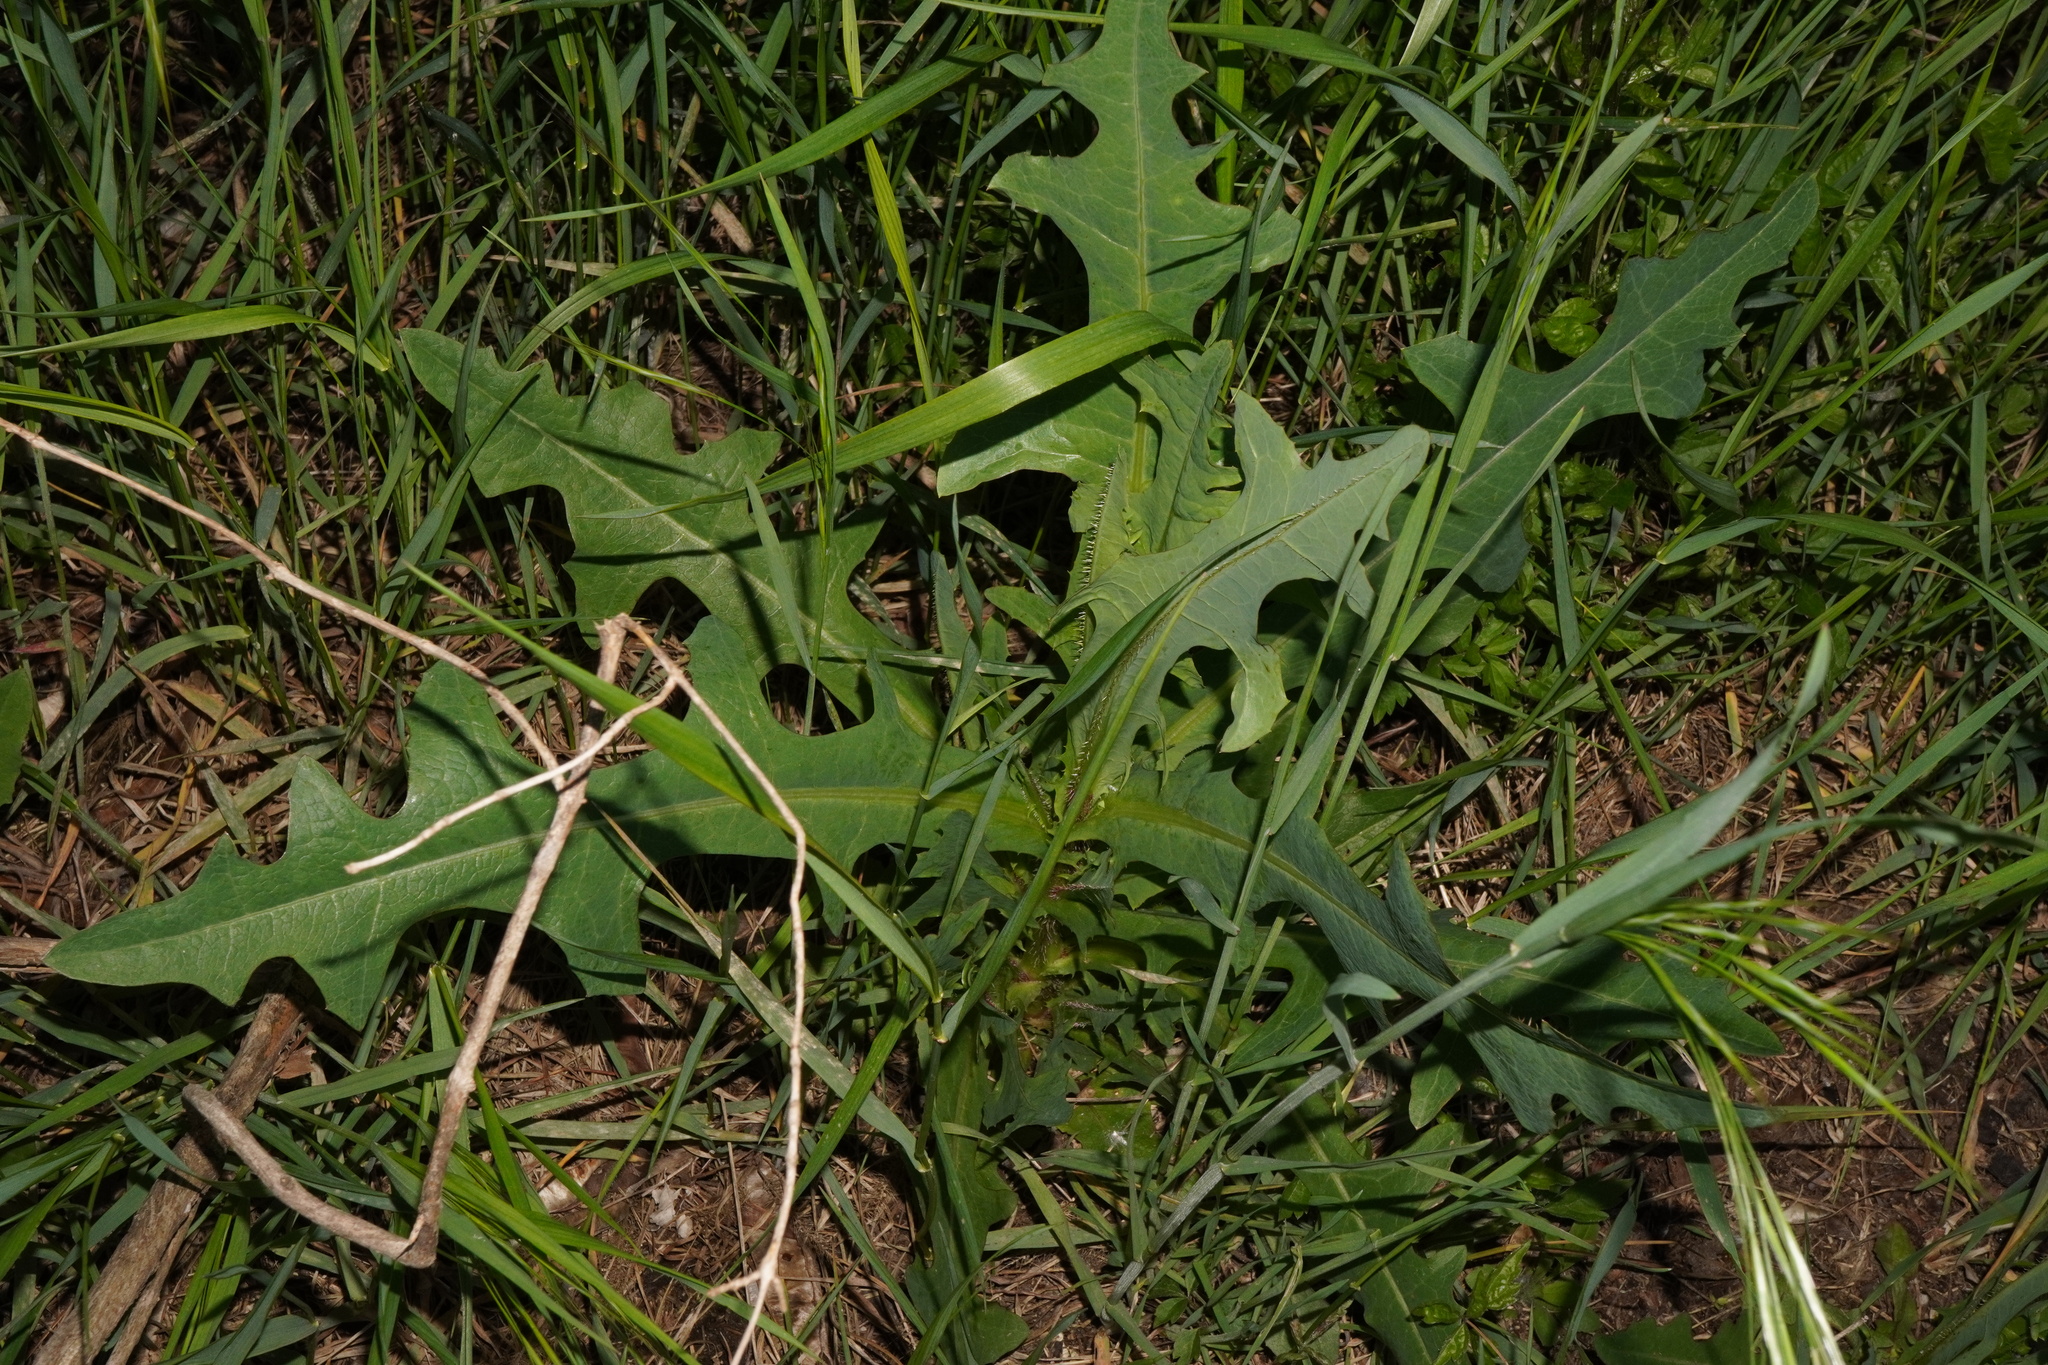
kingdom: Plantae
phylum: Tracheophyta
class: Magnoliopsida
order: Asterales
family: Asteraceae
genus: Lactuca
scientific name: Lactuca serriola
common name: Prickly lettuce
